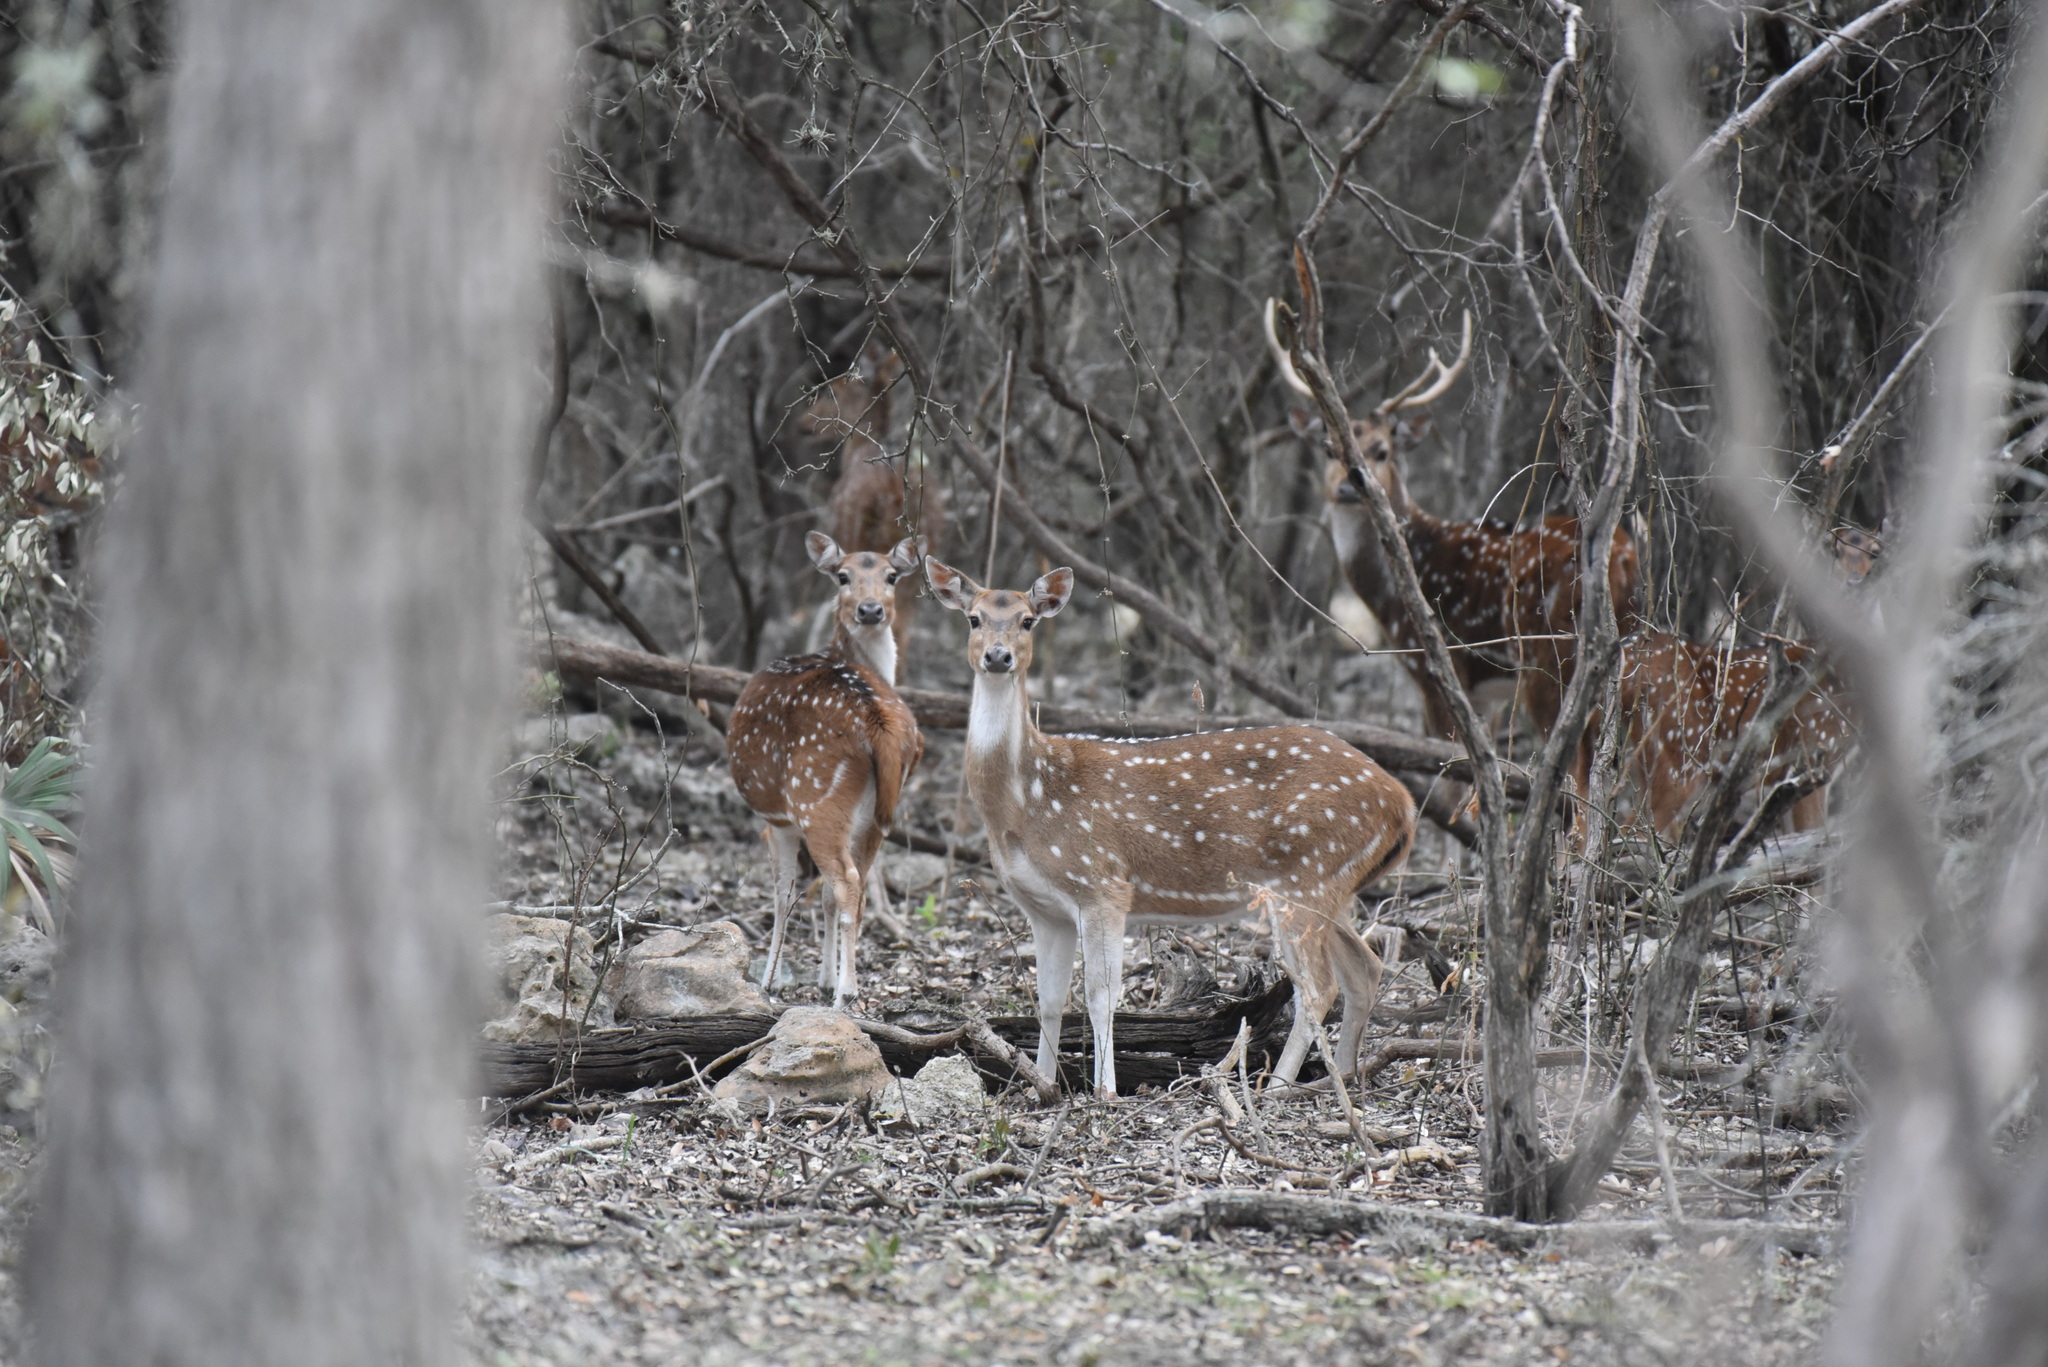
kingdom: Animalia
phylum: Chordata
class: Mammalia
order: Artiodactyla
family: Cervidae
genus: Axis
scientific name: Axis axis
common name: Chital
